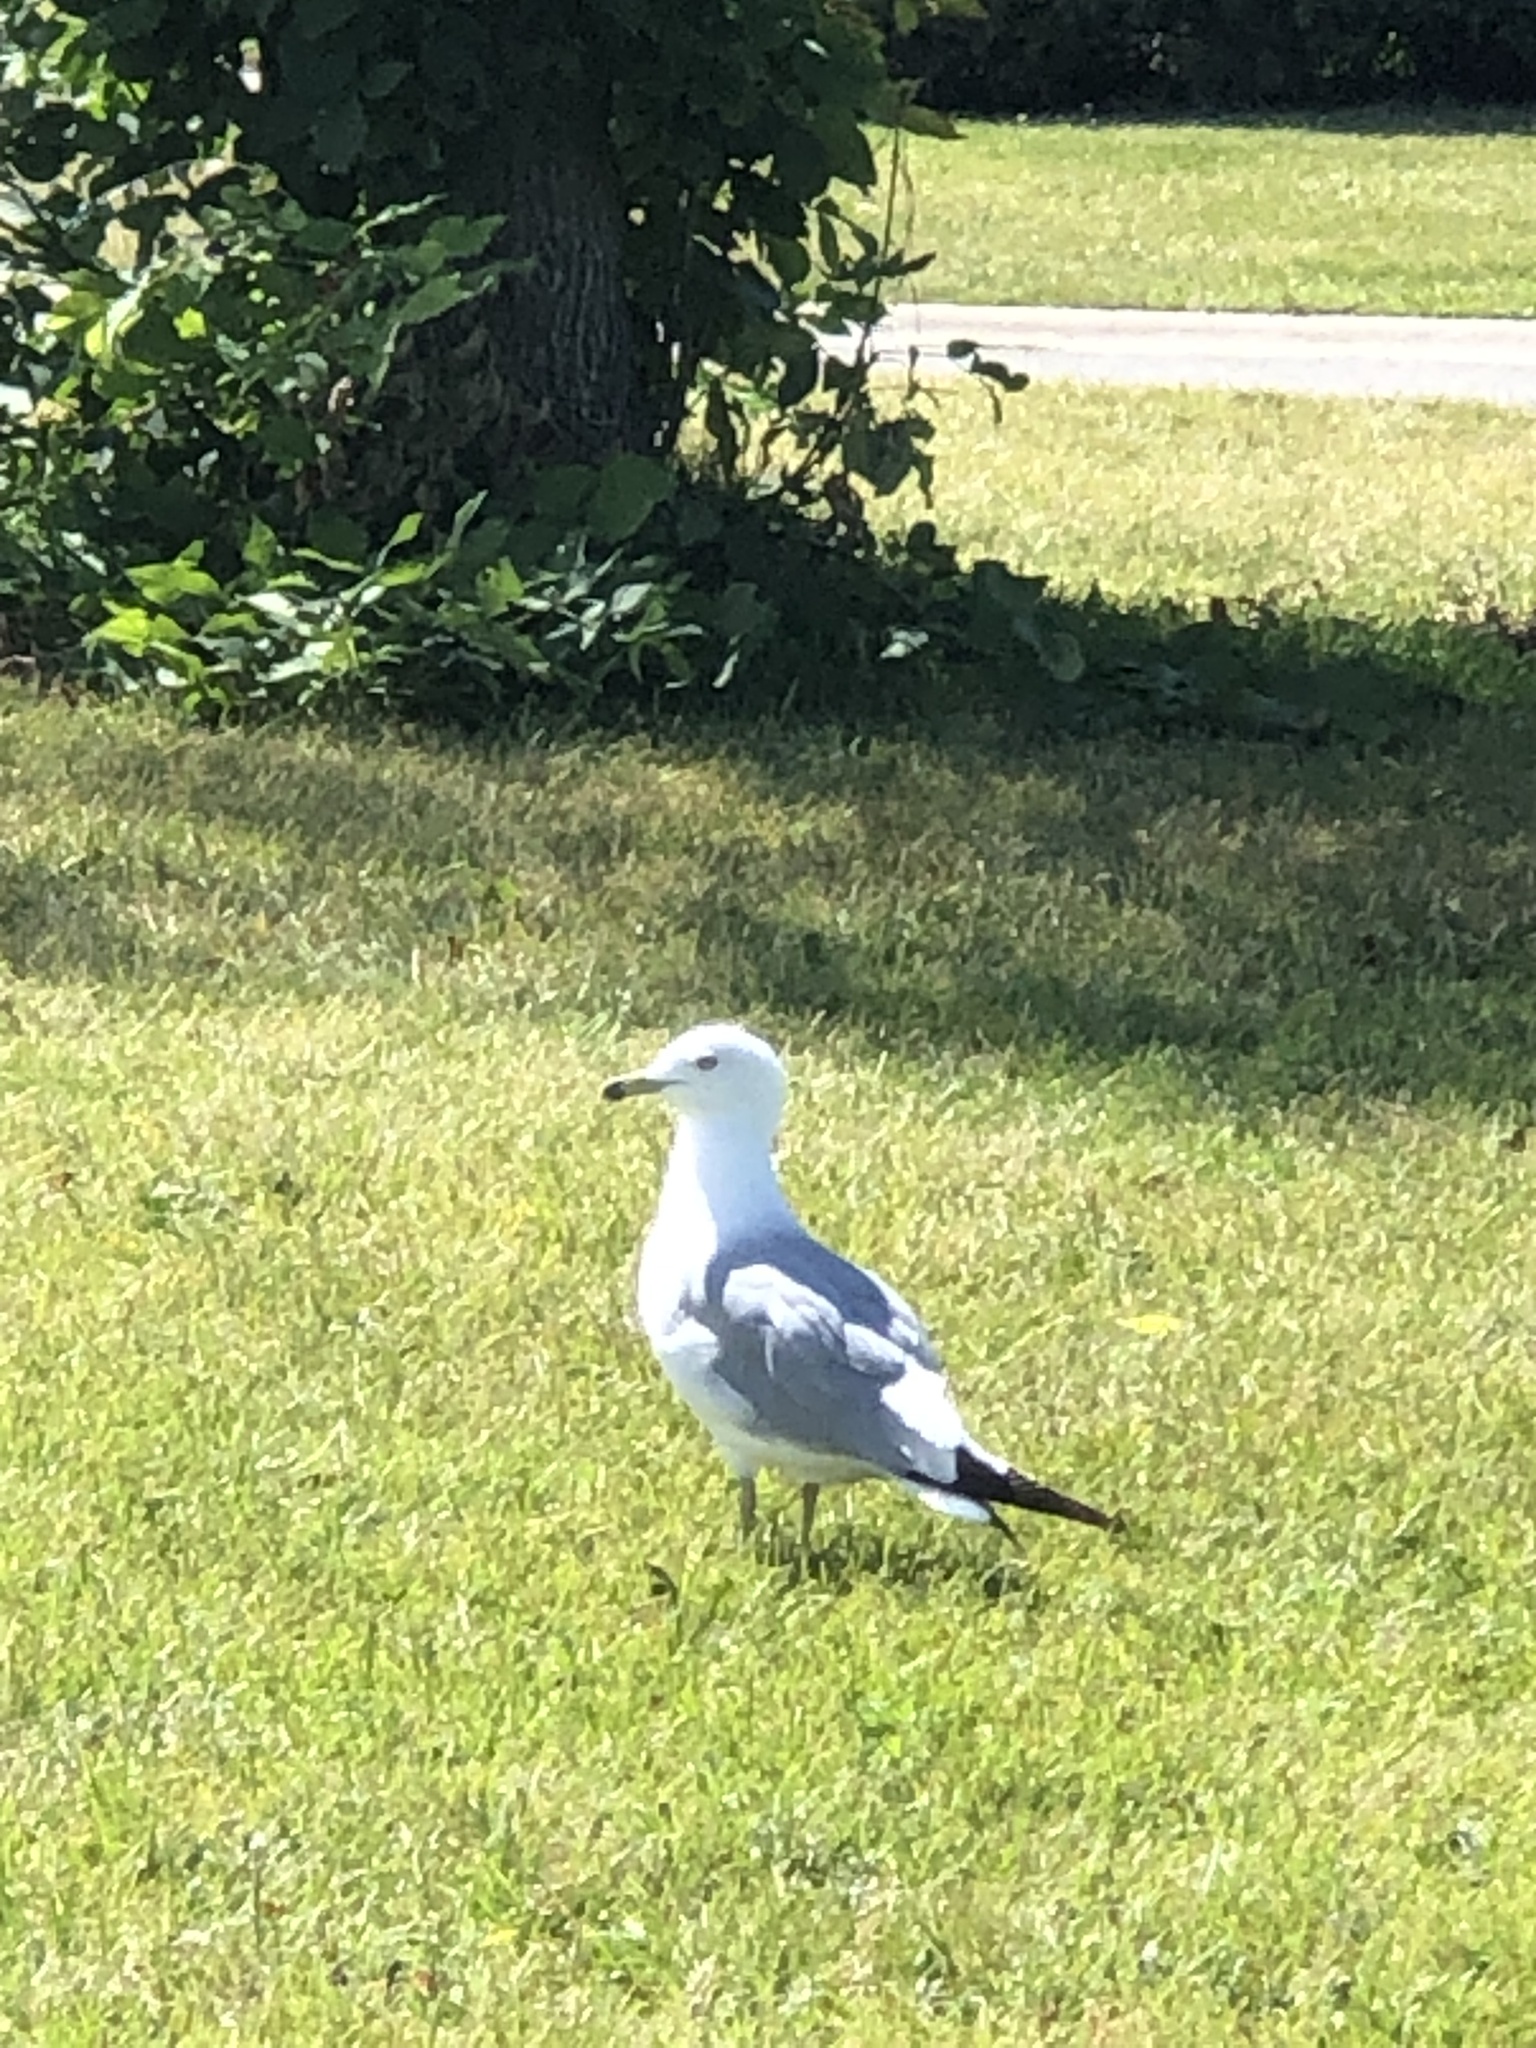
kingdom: Animalia
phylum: Chordata
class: Aves
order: Charadriiformes
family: Laridae
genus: Larus
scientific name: Larus delawarensis
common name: Ring-billed gull
